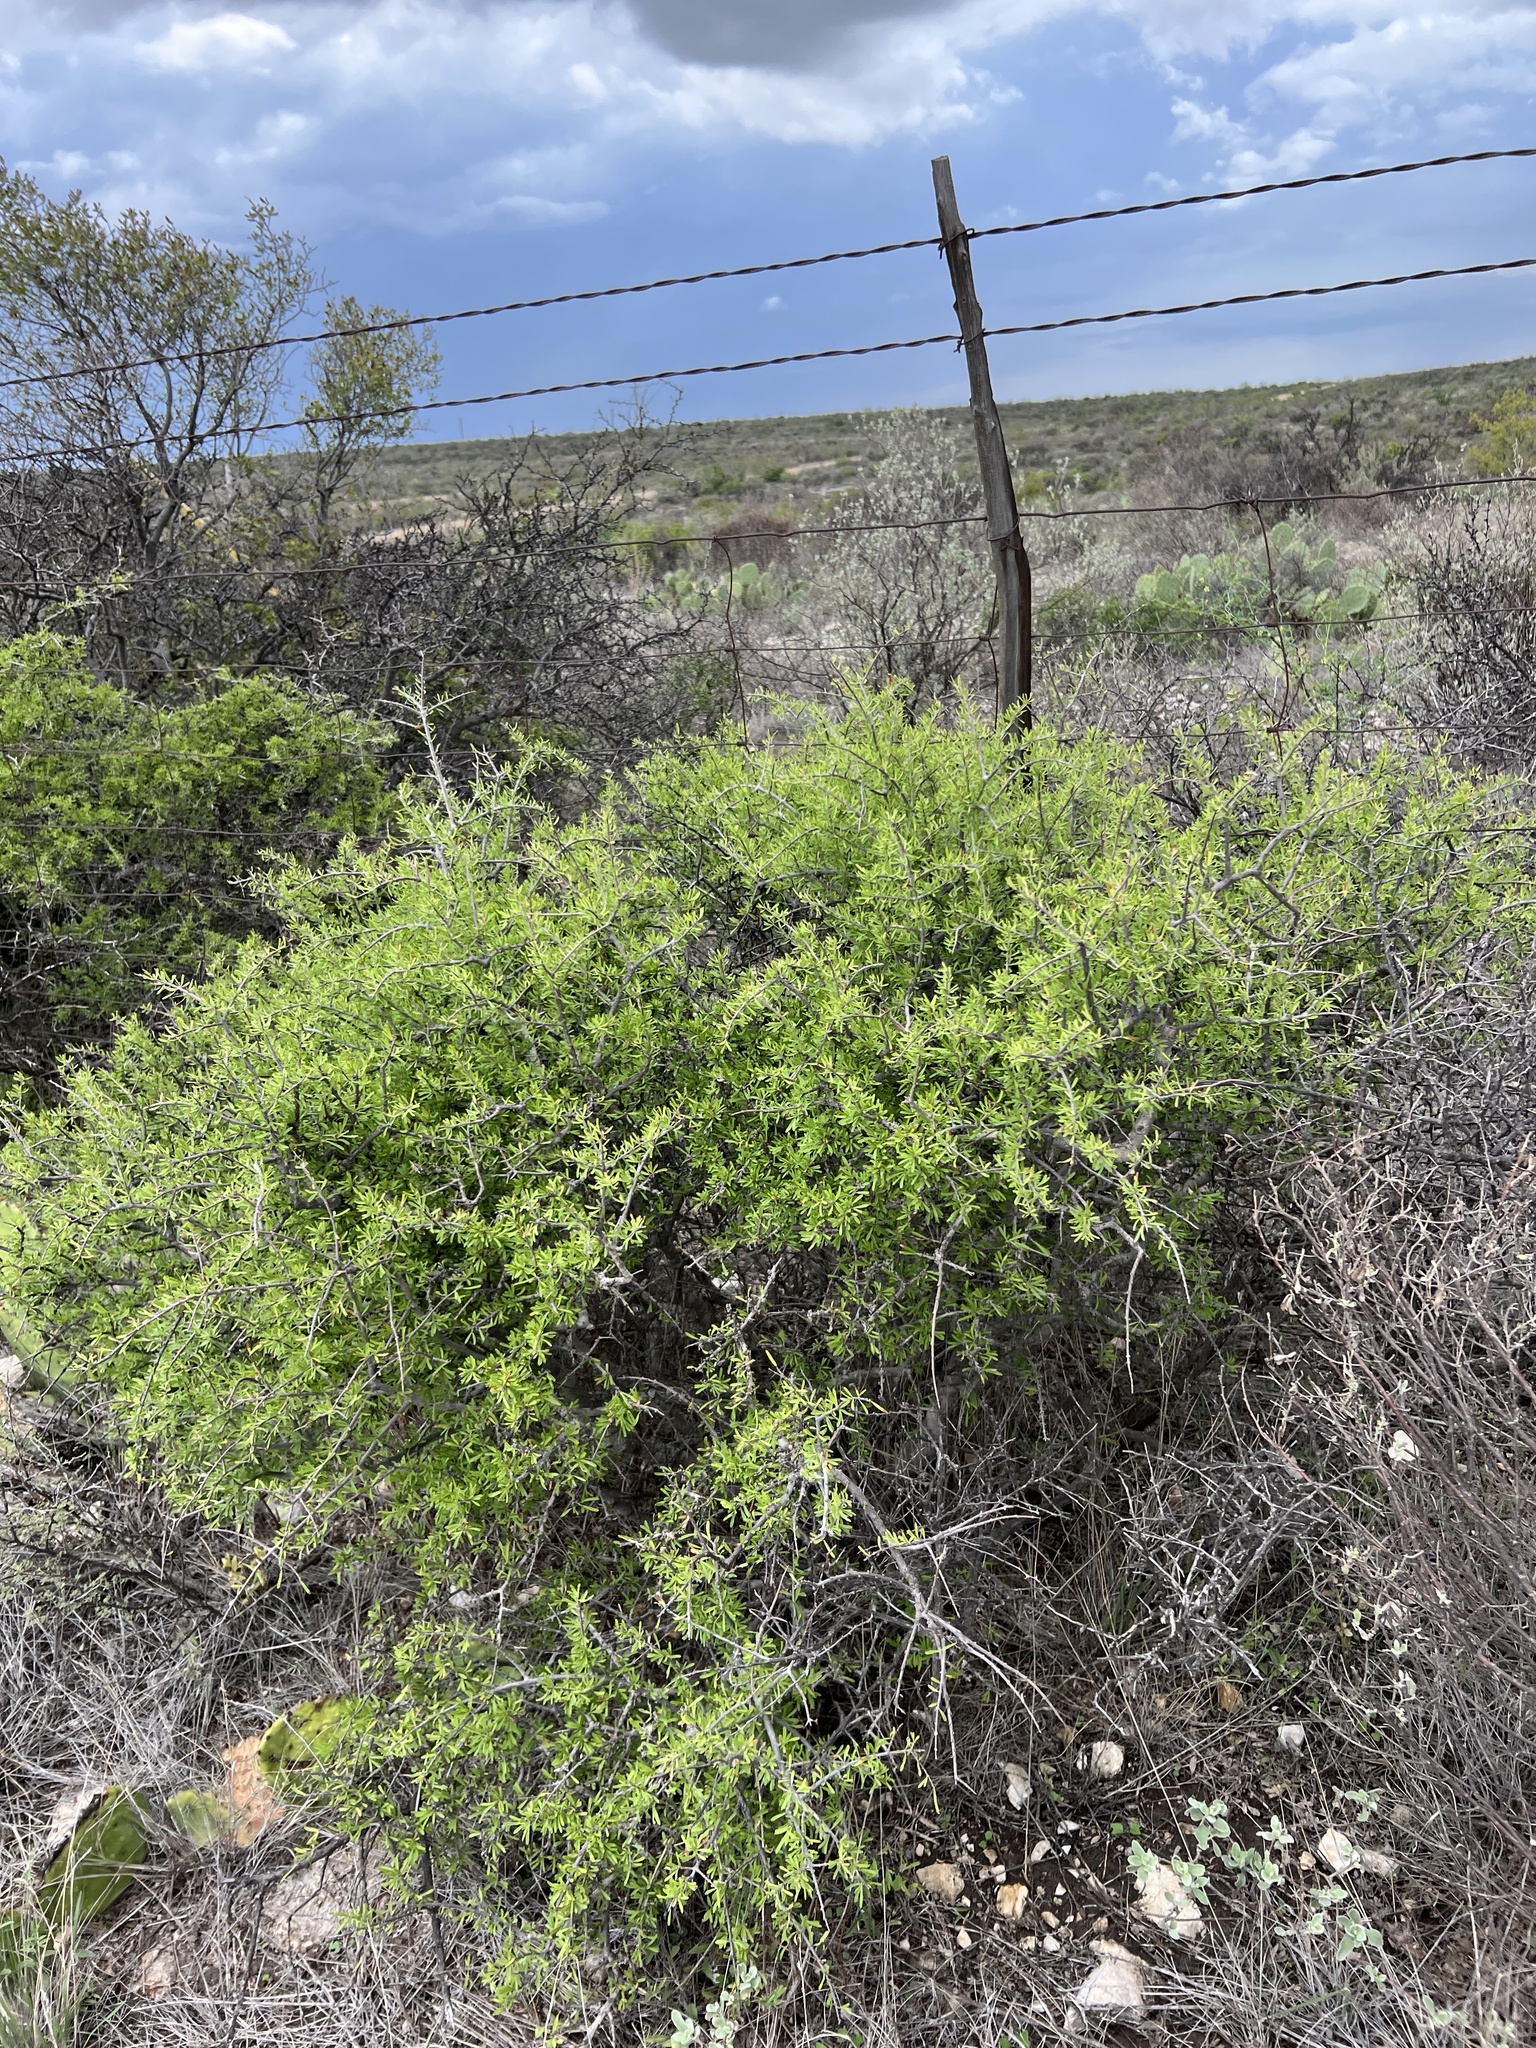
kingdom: Plantae
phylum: Tracheophyta
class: Magnoliopsida
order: Lamiales
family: Oleaceae
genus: Forestiera
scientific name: Forestiera angustifolia
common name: Elbowbush
